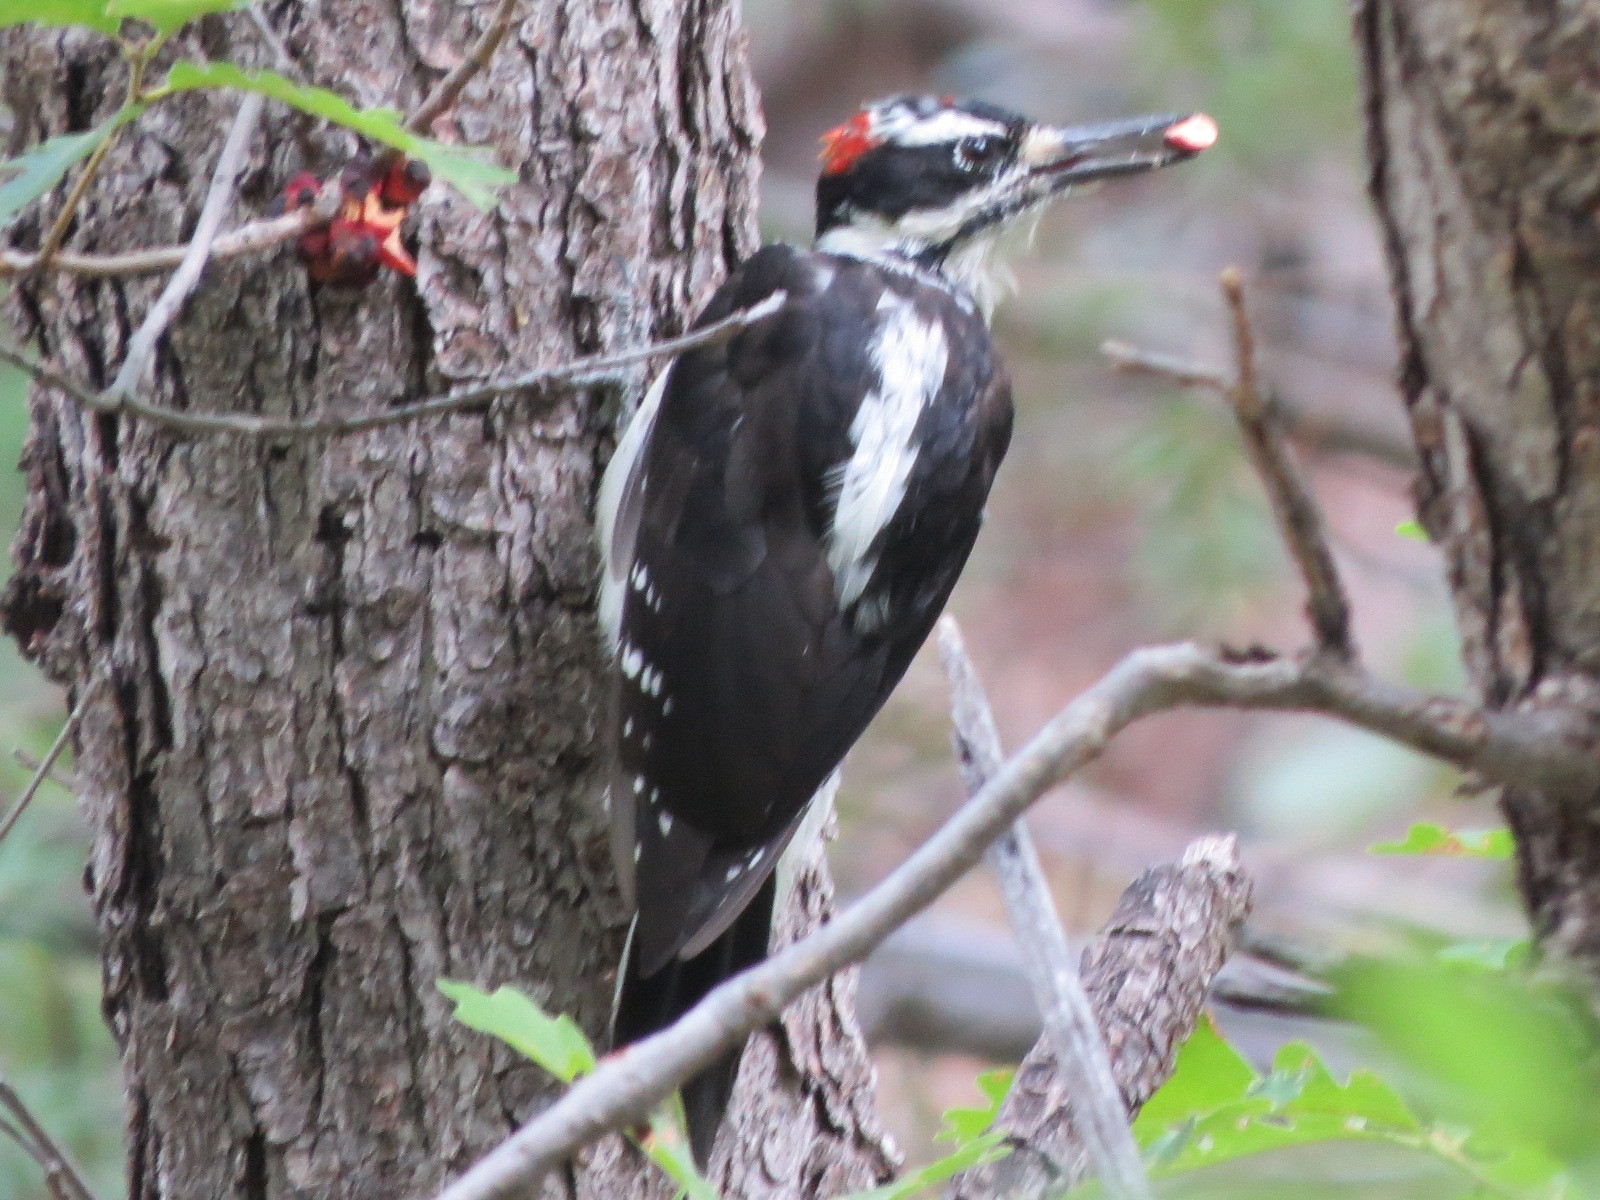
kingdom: Animalia
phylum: Chordata
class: Aves
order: Piciformes
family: Picidae
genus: Leuconotopicus
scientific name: Leuconotopicus villosus
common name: Hairy woodpecker
